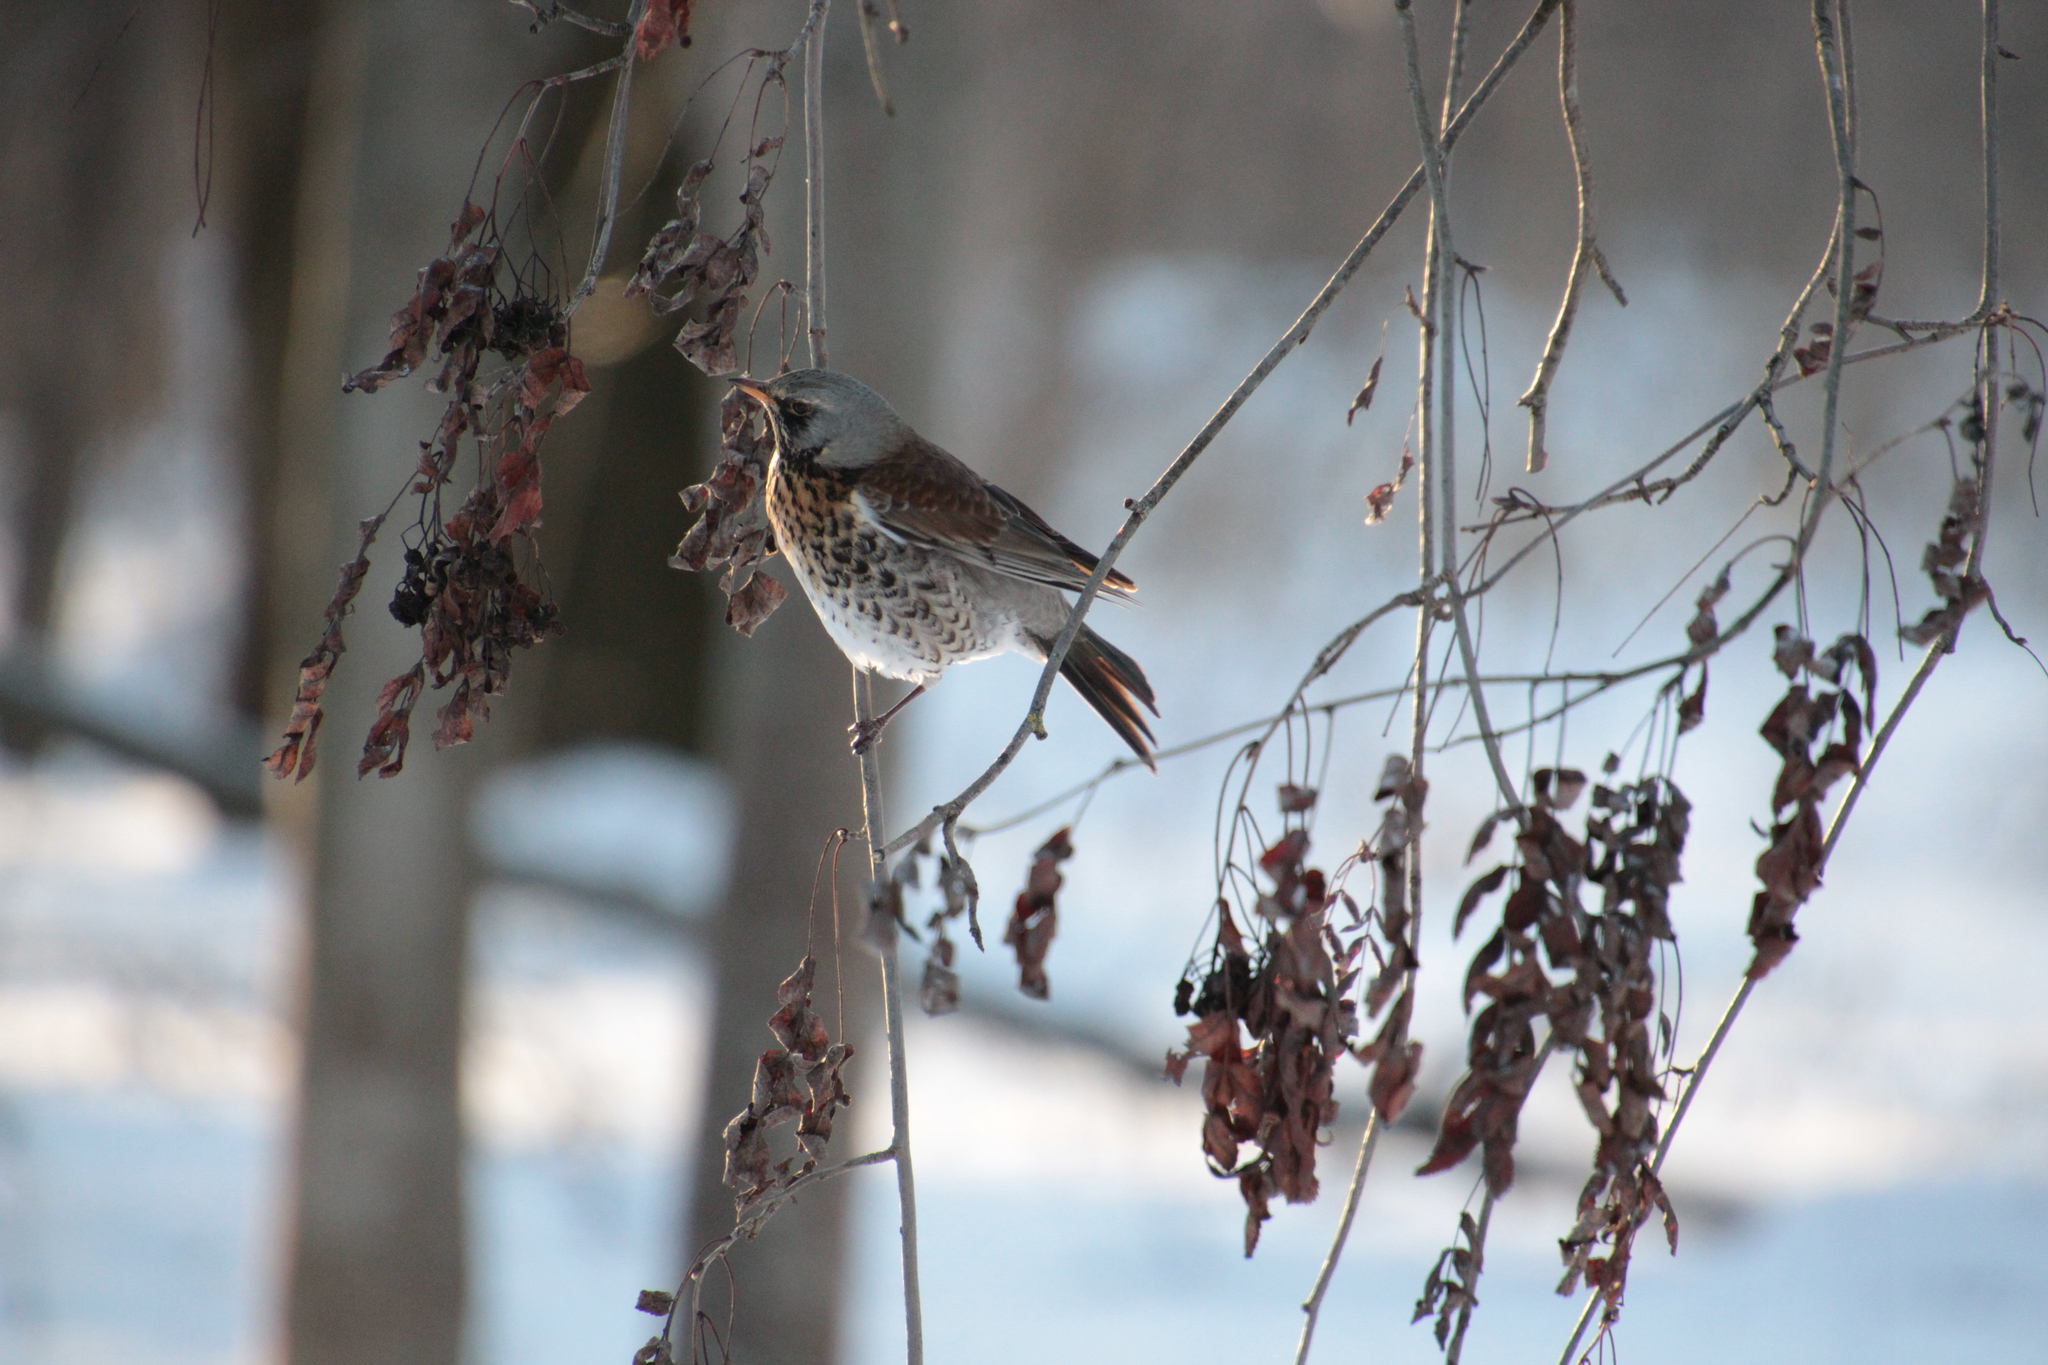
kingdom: Animalia
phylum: Chordata
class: Aves
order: Passeriformes
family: Turdidae
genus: Turdus
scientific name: Turdus pilaris
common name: Fieldfare
